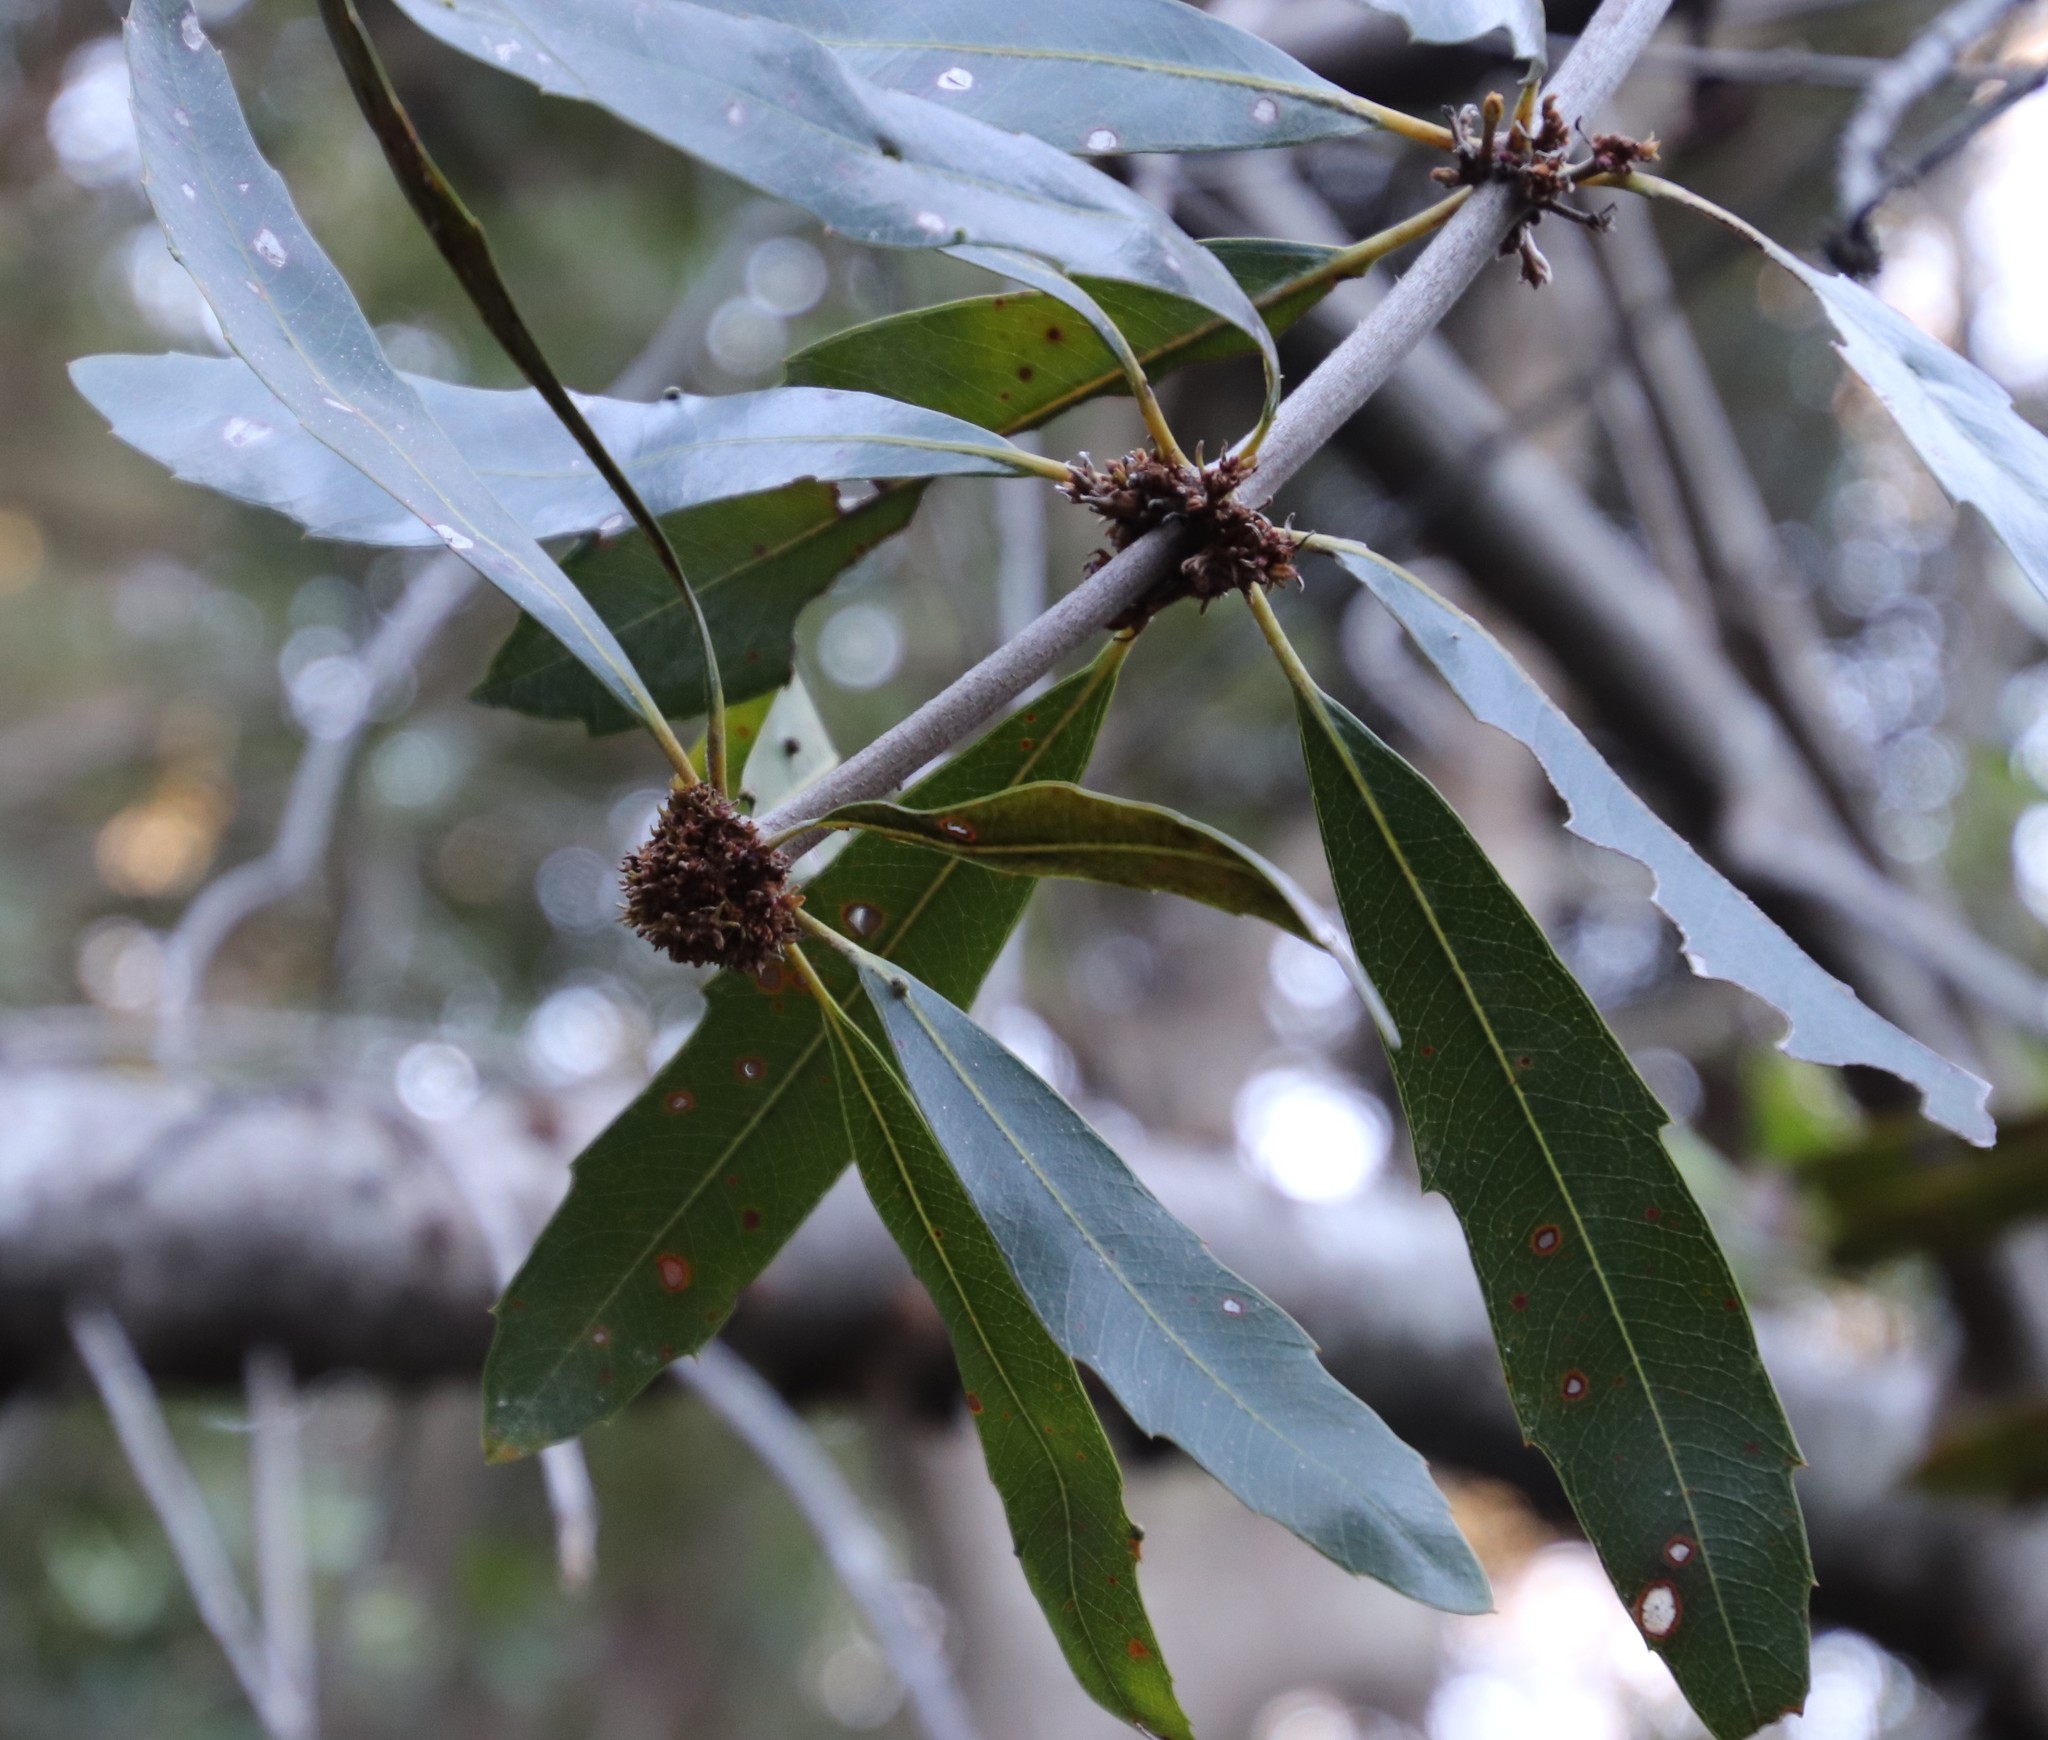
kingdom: Bacteria
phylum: Firmicutes
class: Bacilli
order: Acholeplasmatales
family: Acholeplasmataceae
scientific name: Acholeplasmataceae
